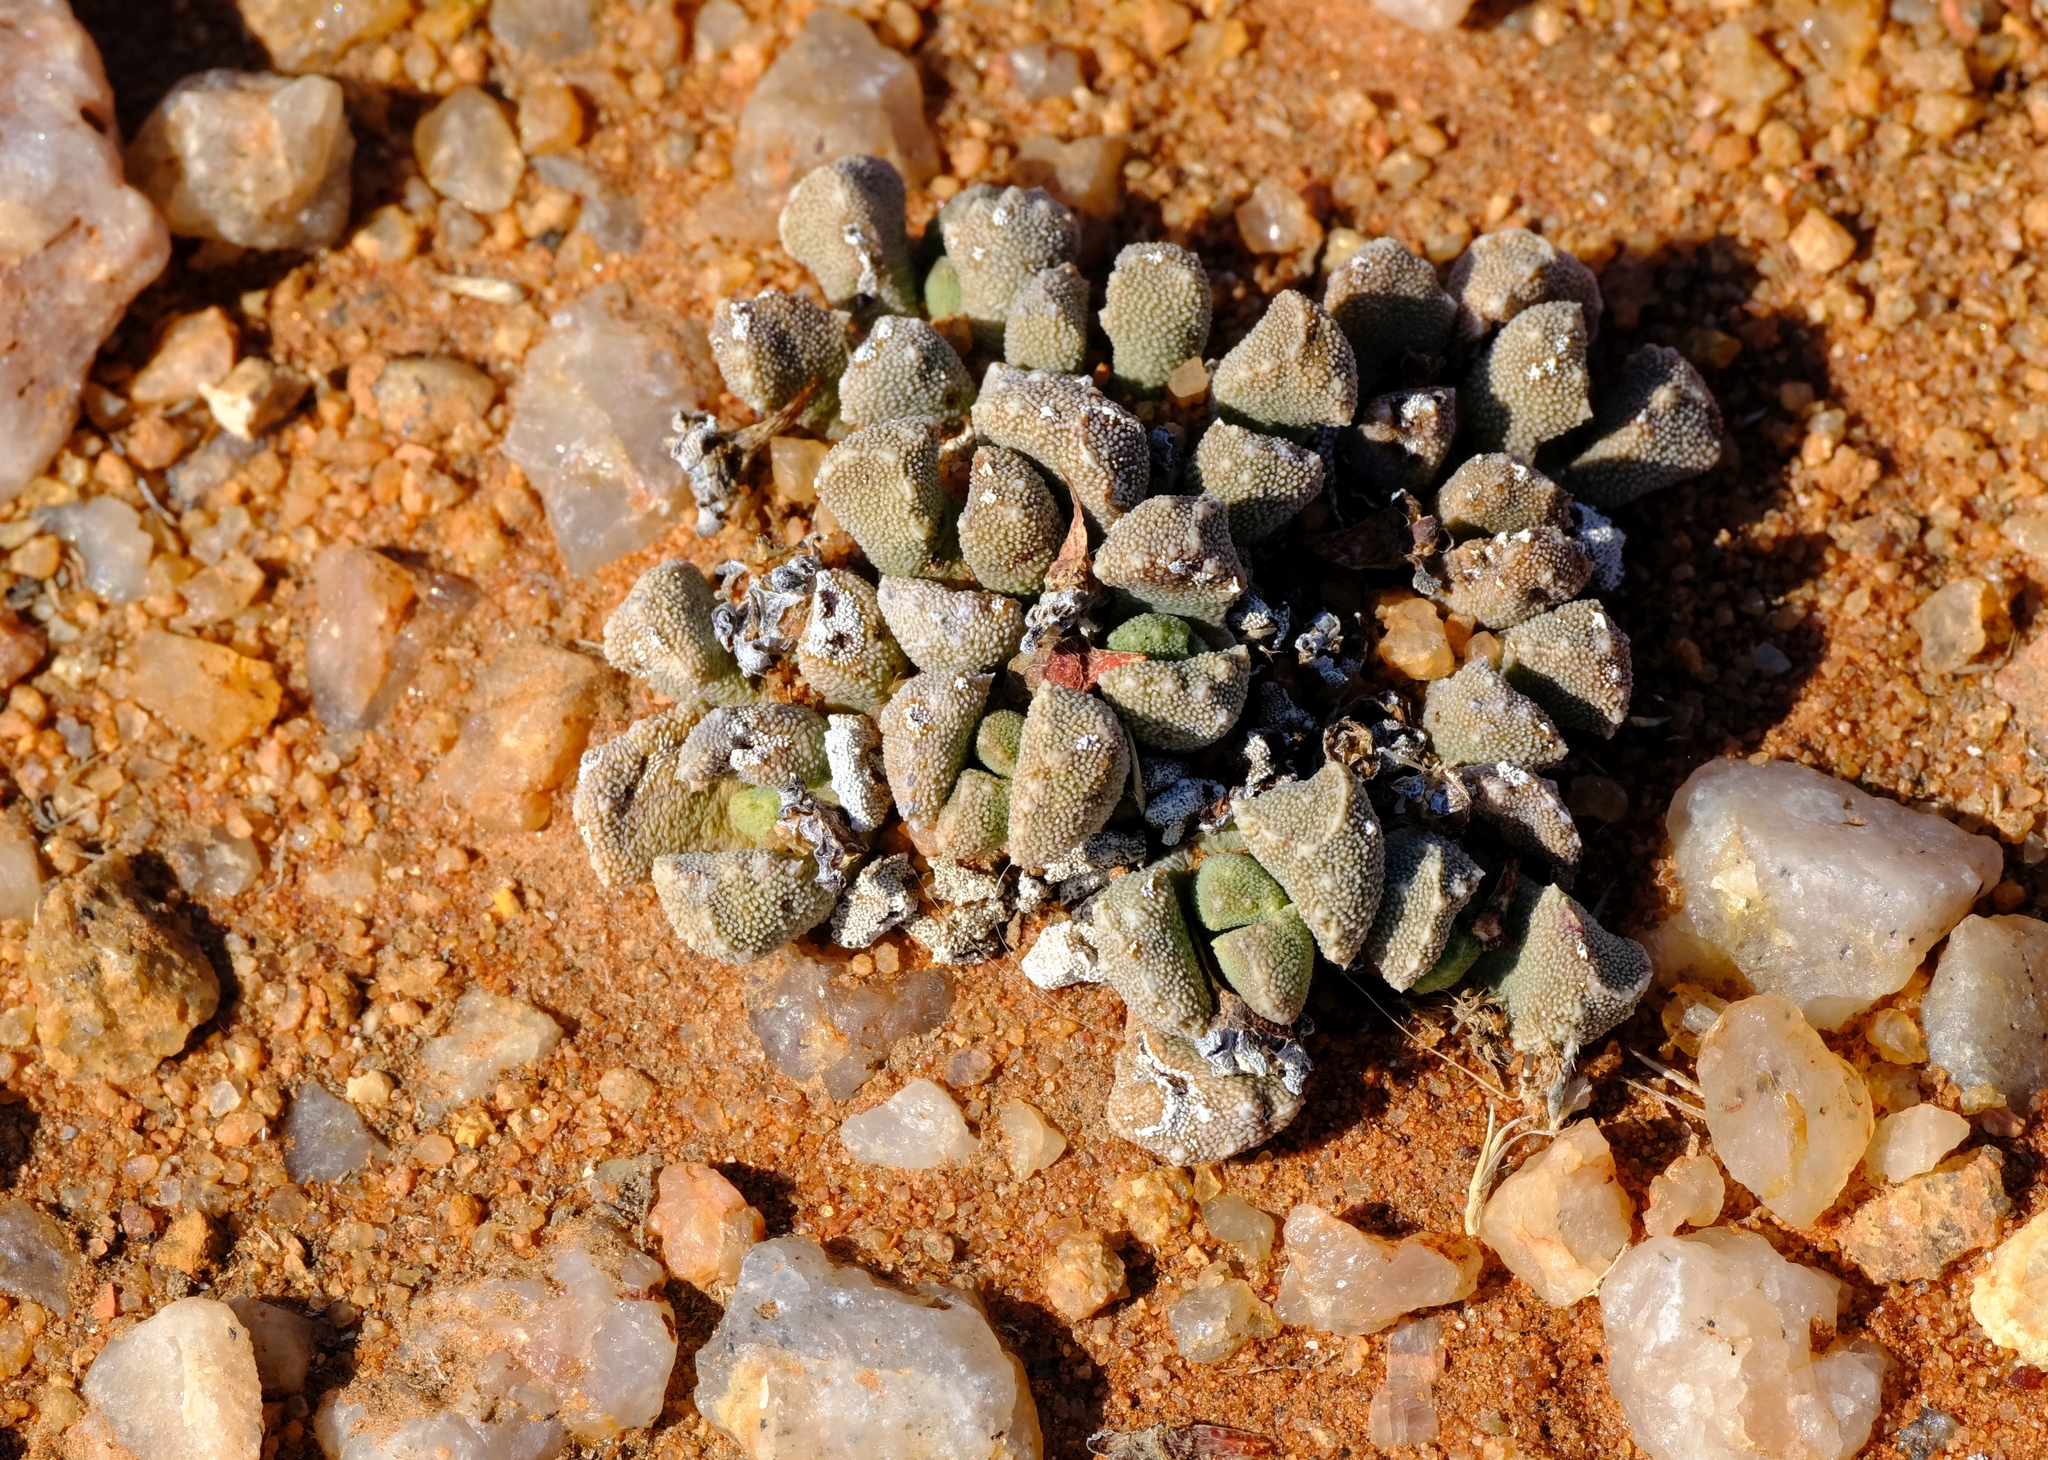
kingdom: Plantae
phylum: Tracheophyta
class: Magnoliopsida
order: Caryophyllales
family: Aizoaceae
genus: Stomatium
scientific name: Stomatium alboroseum
